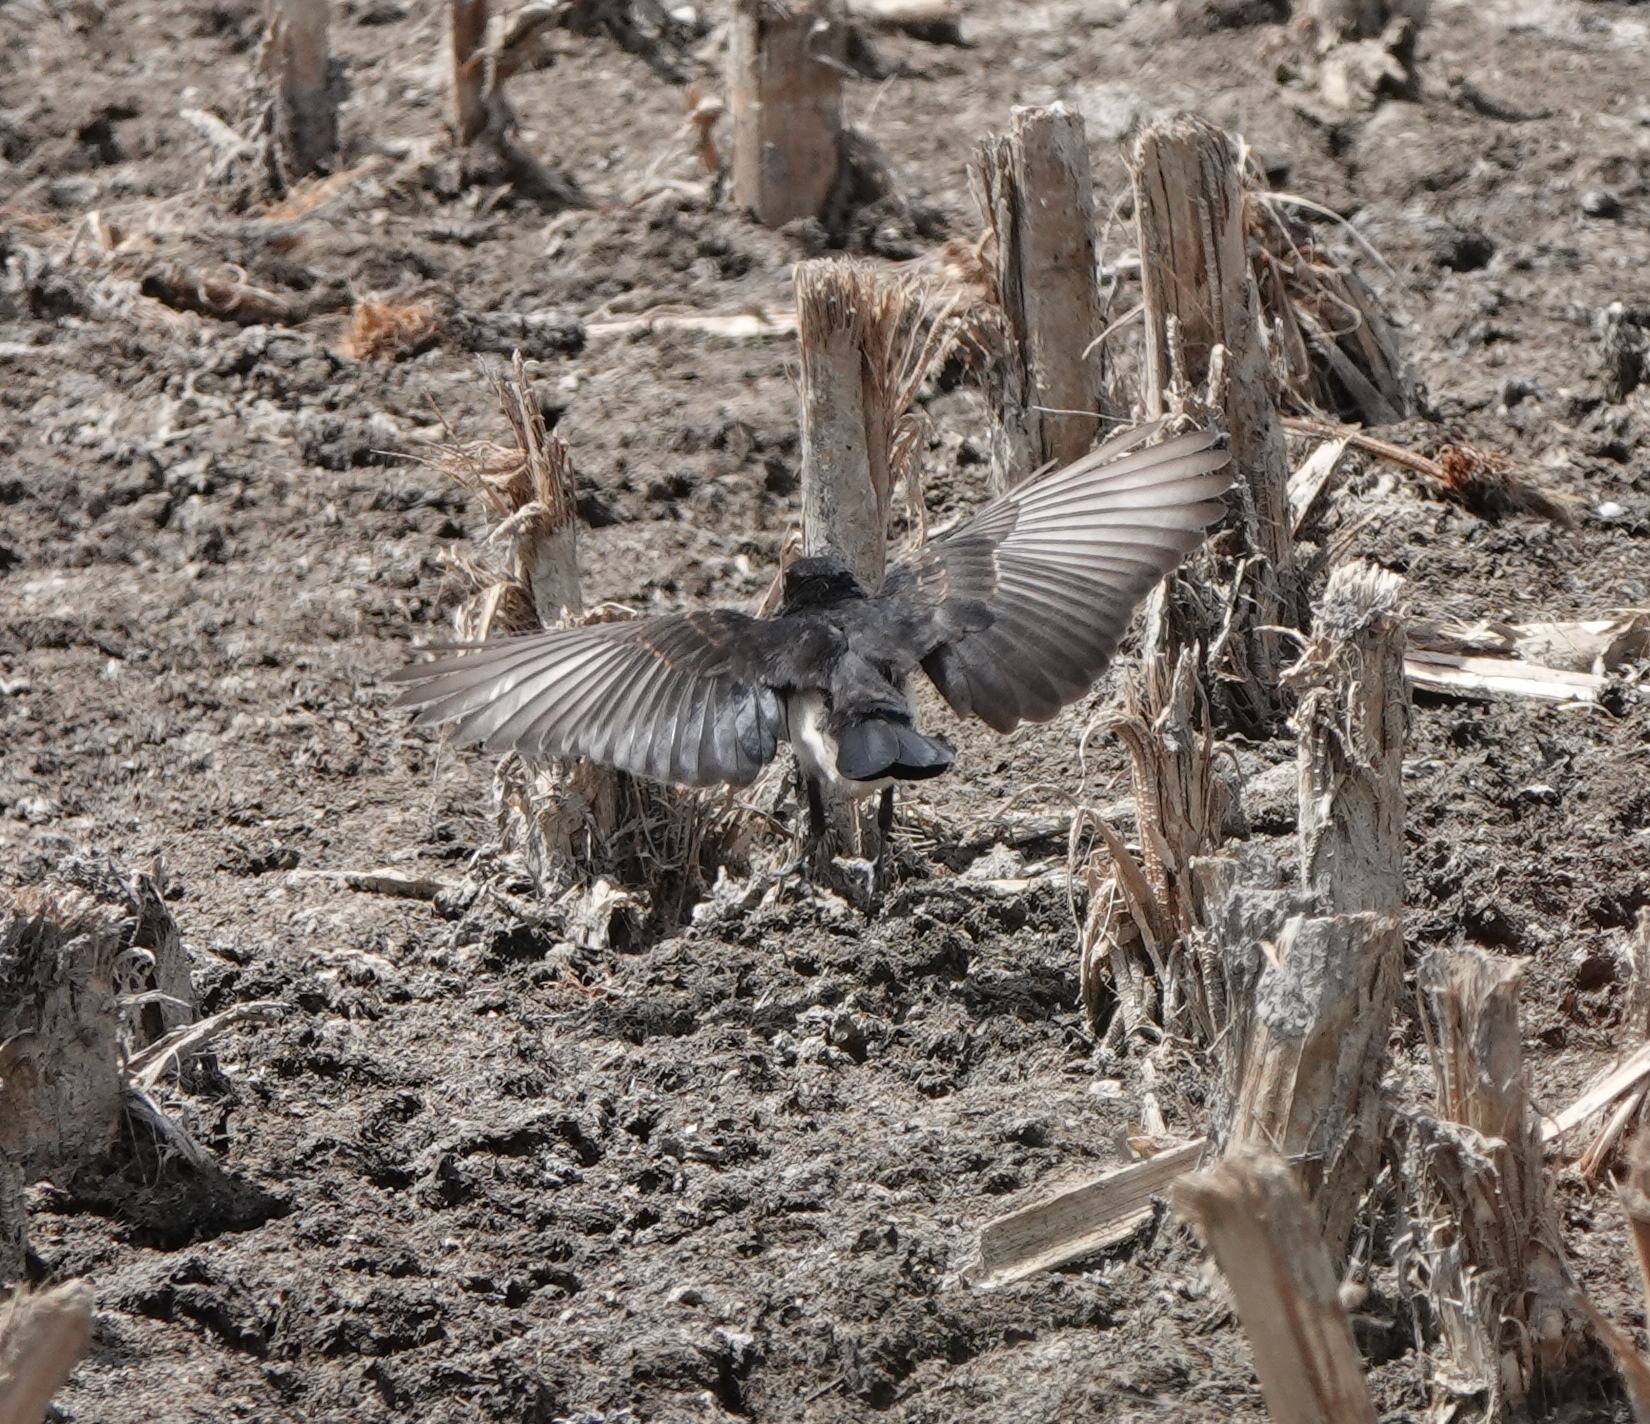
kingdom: Animalia
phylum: Chordata
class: Aves
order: Passeriformes
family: Rhipiduridae
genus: Rhipidura
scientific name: Rhipidura leucophrys
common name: Willie wagtail
